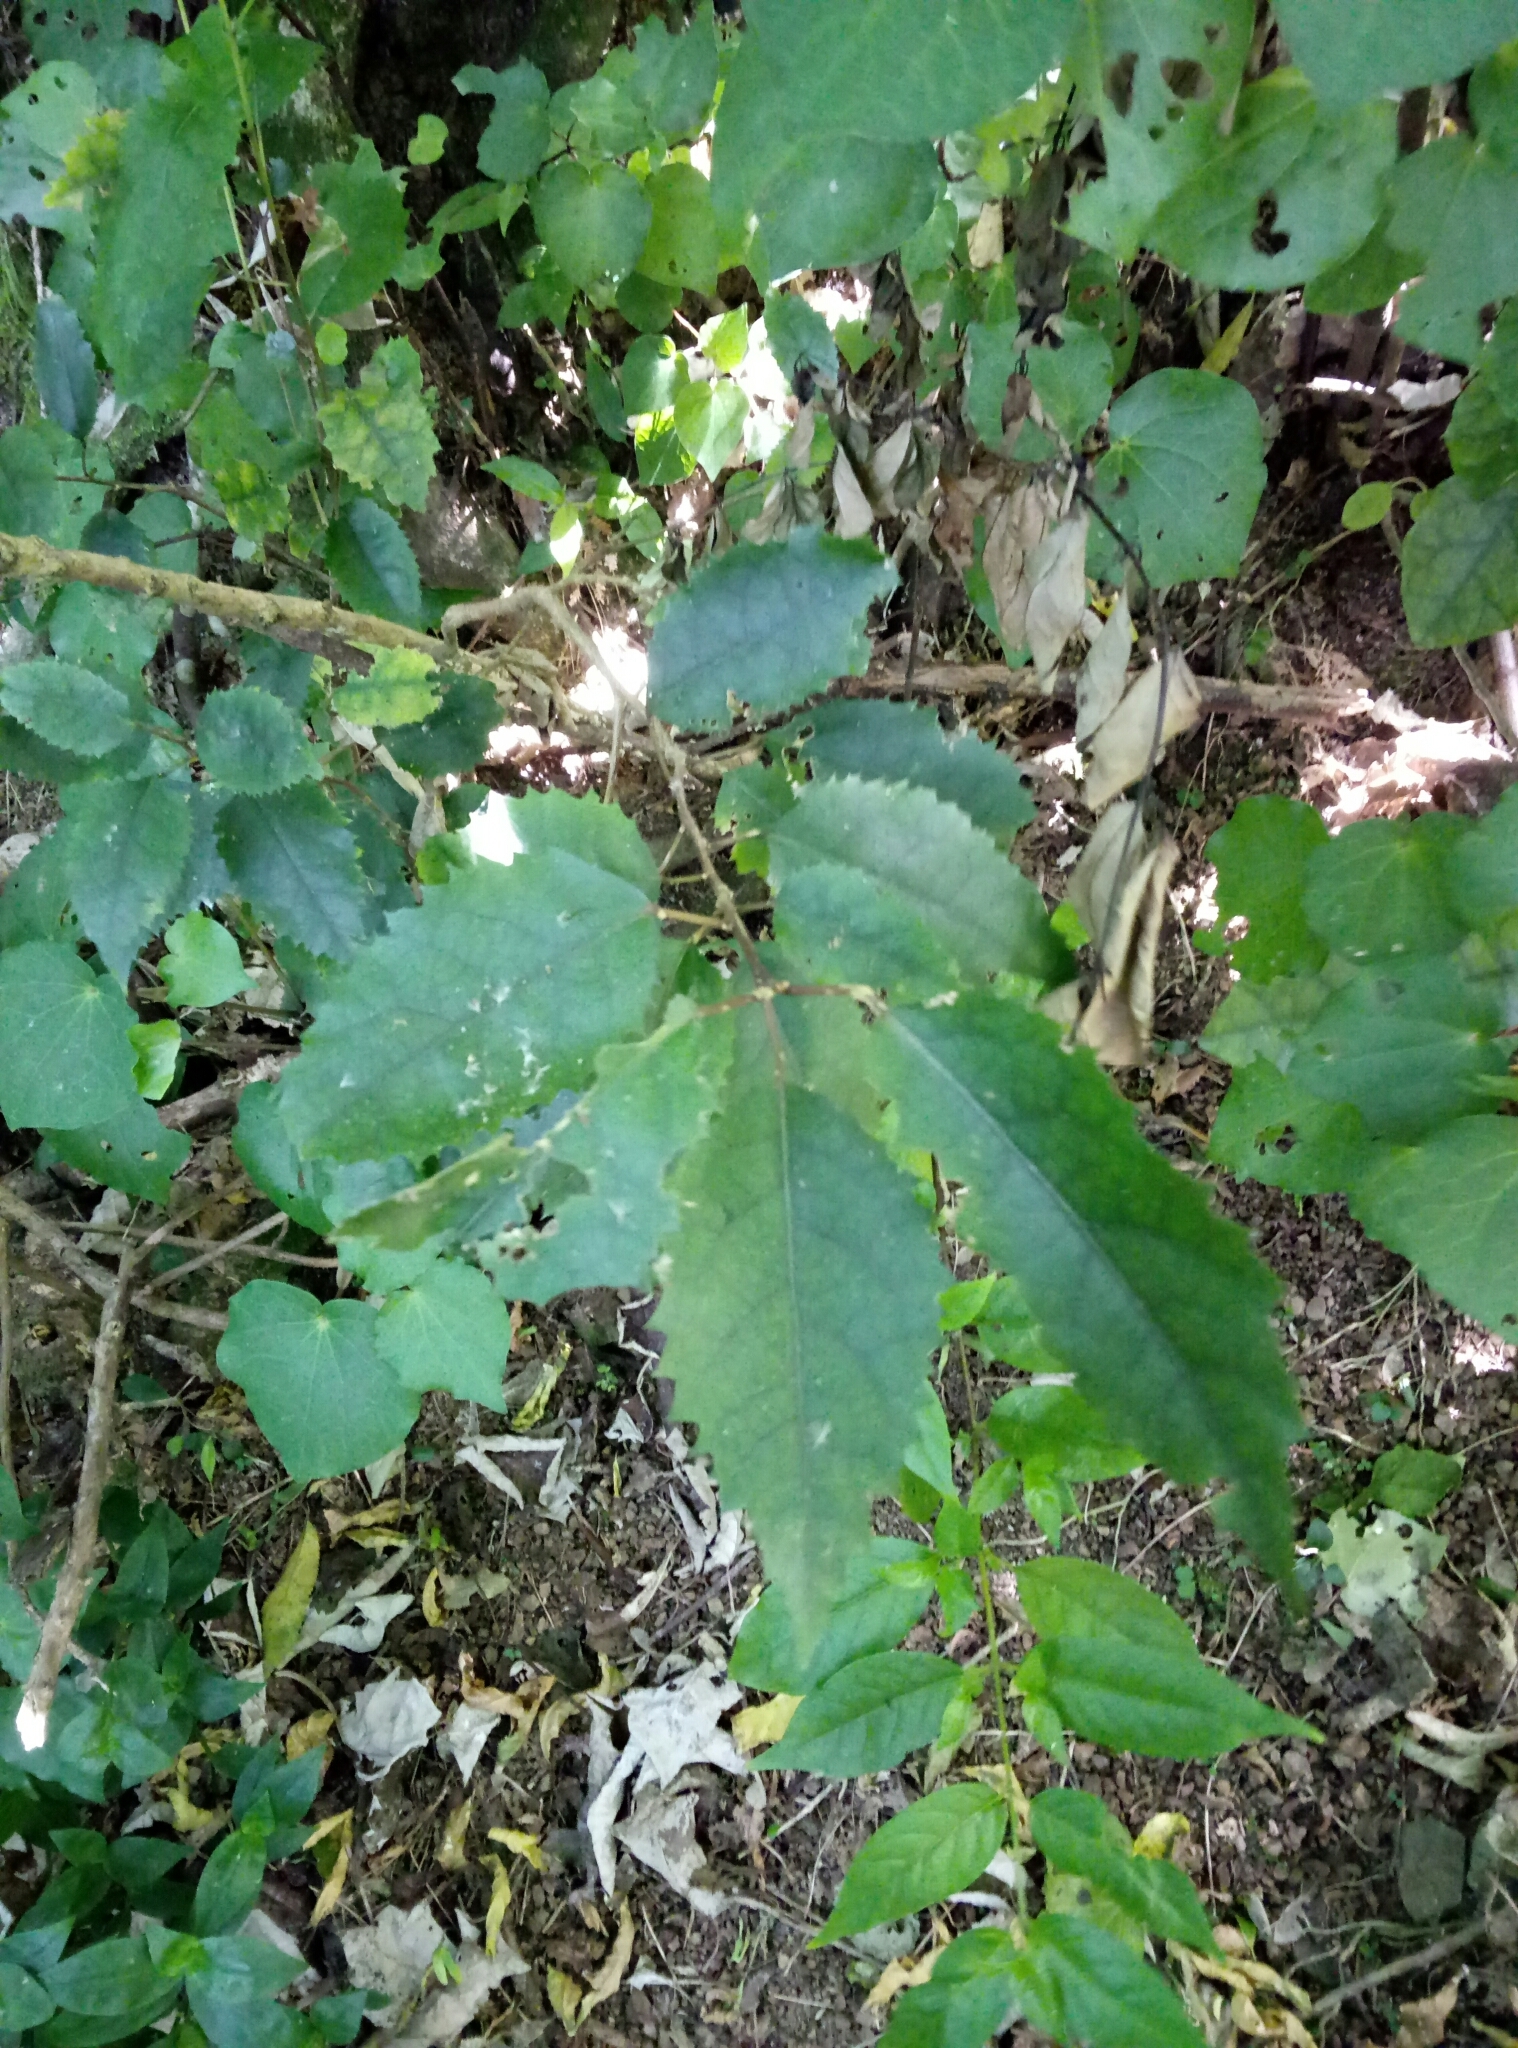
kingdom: Plantae
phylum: Tracheophyta
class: Magnoliopsida
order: Malvales
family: Malvaceae
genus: Hoheria
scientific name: Hoheria populnea
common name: Lacebark
